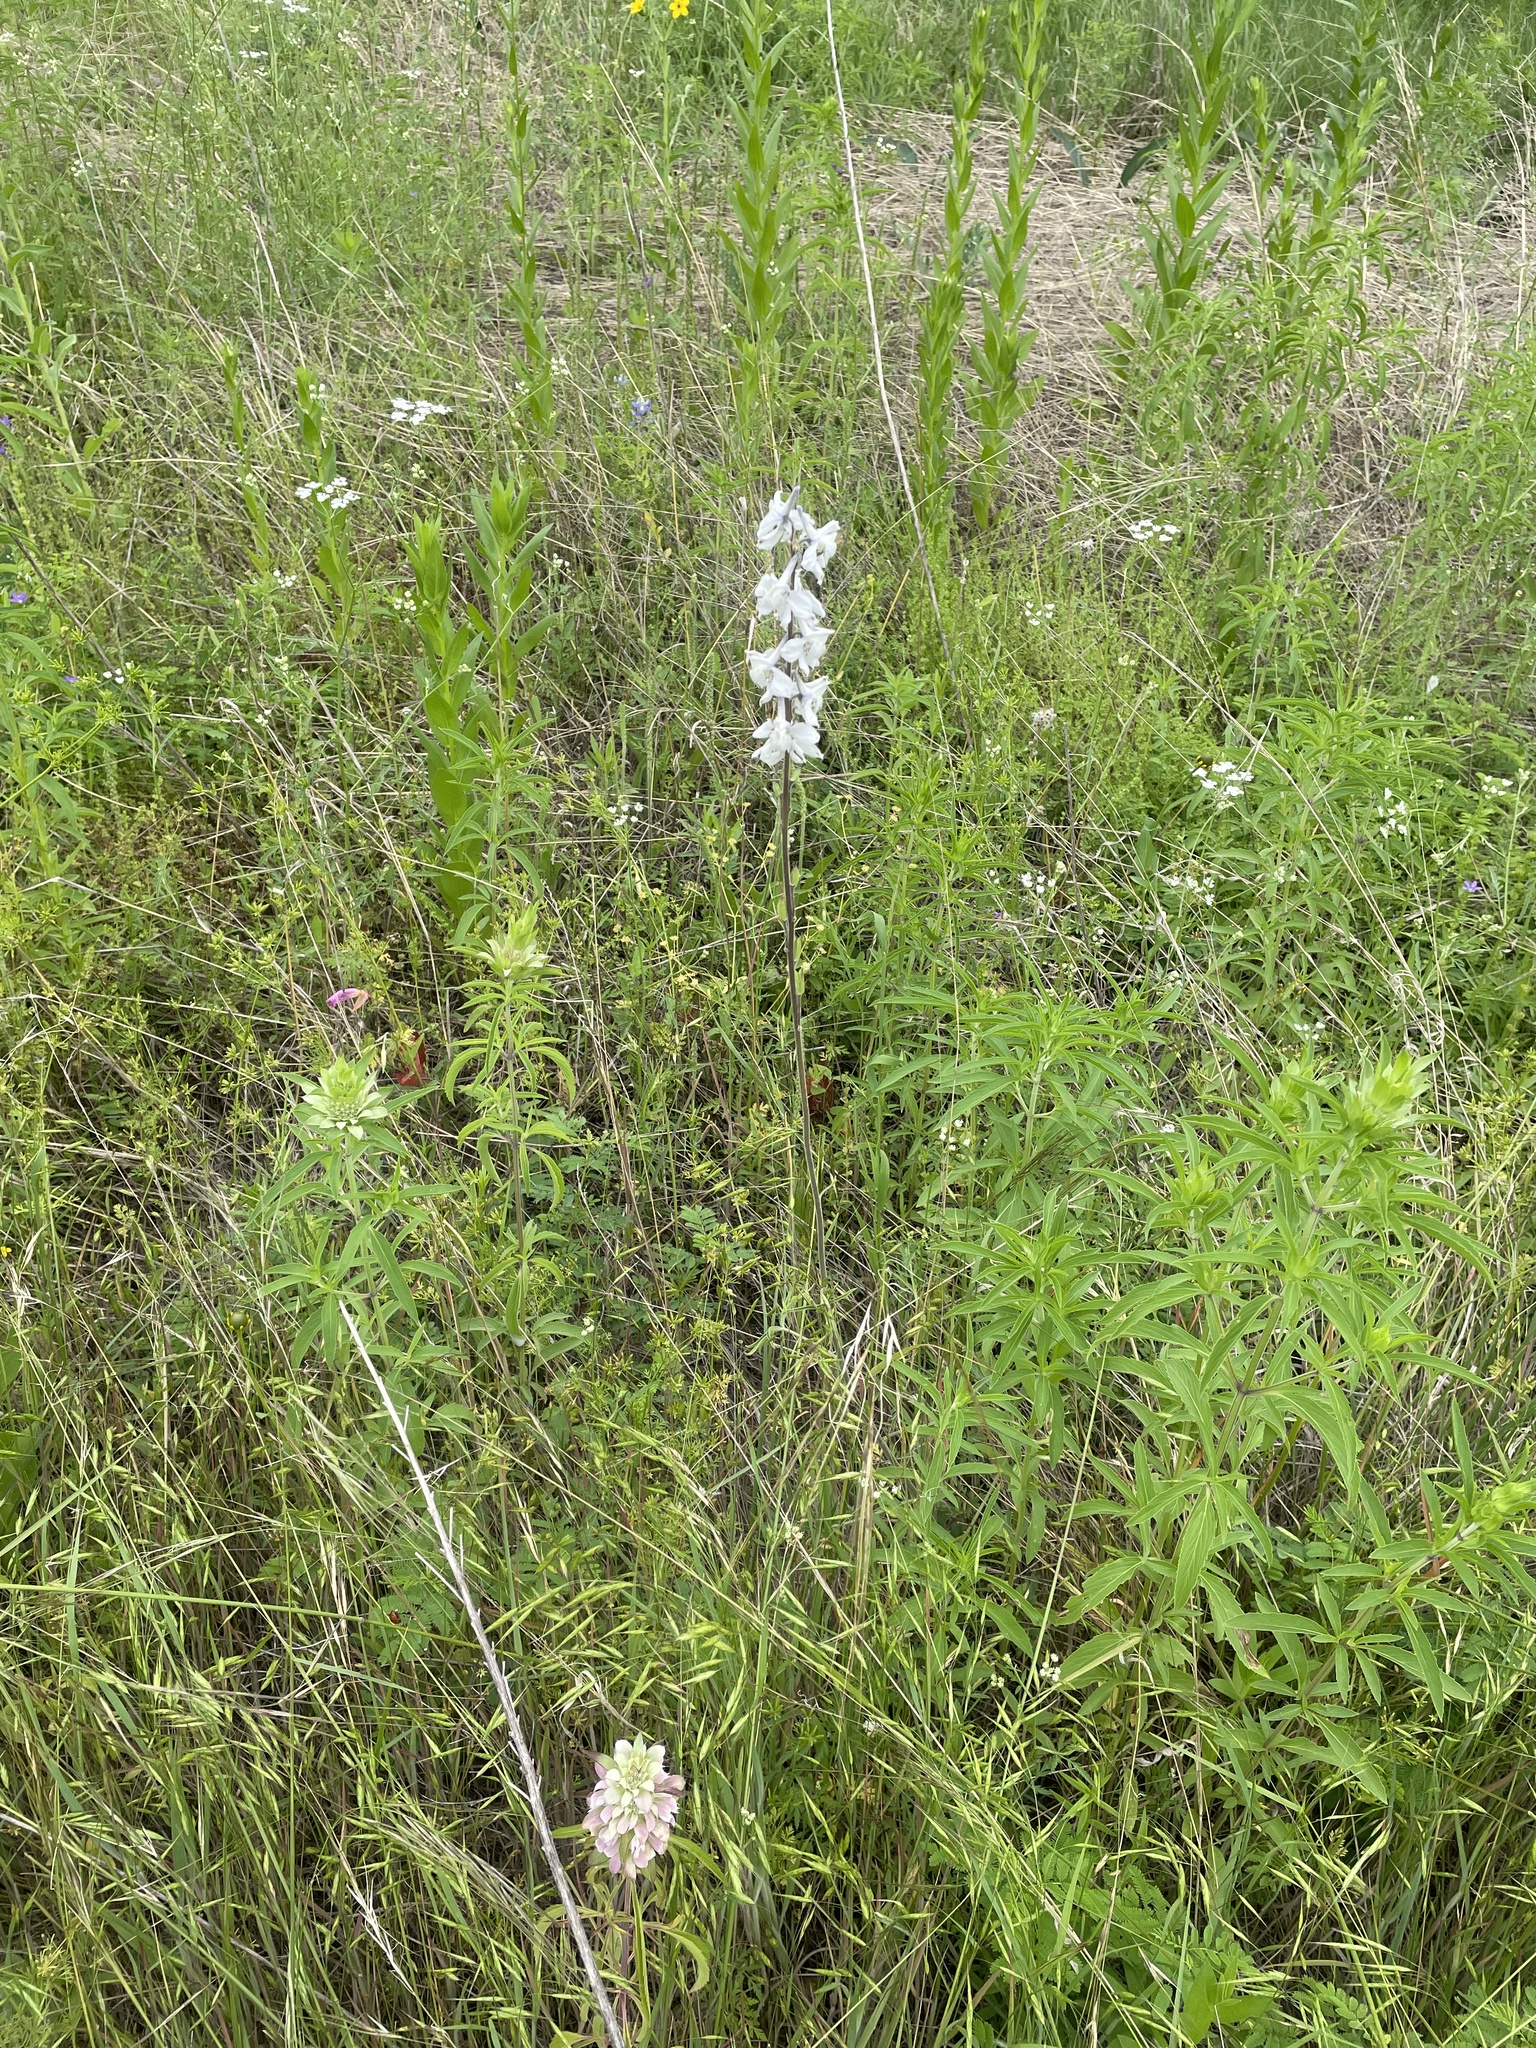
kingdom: Plantae
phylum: Tracheophyta
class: Magnoliopsida
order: Ranunculales
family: Ranunculaceae
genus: Delphinium
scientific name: Delphinium carolinianum
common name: Carolina larkspur
